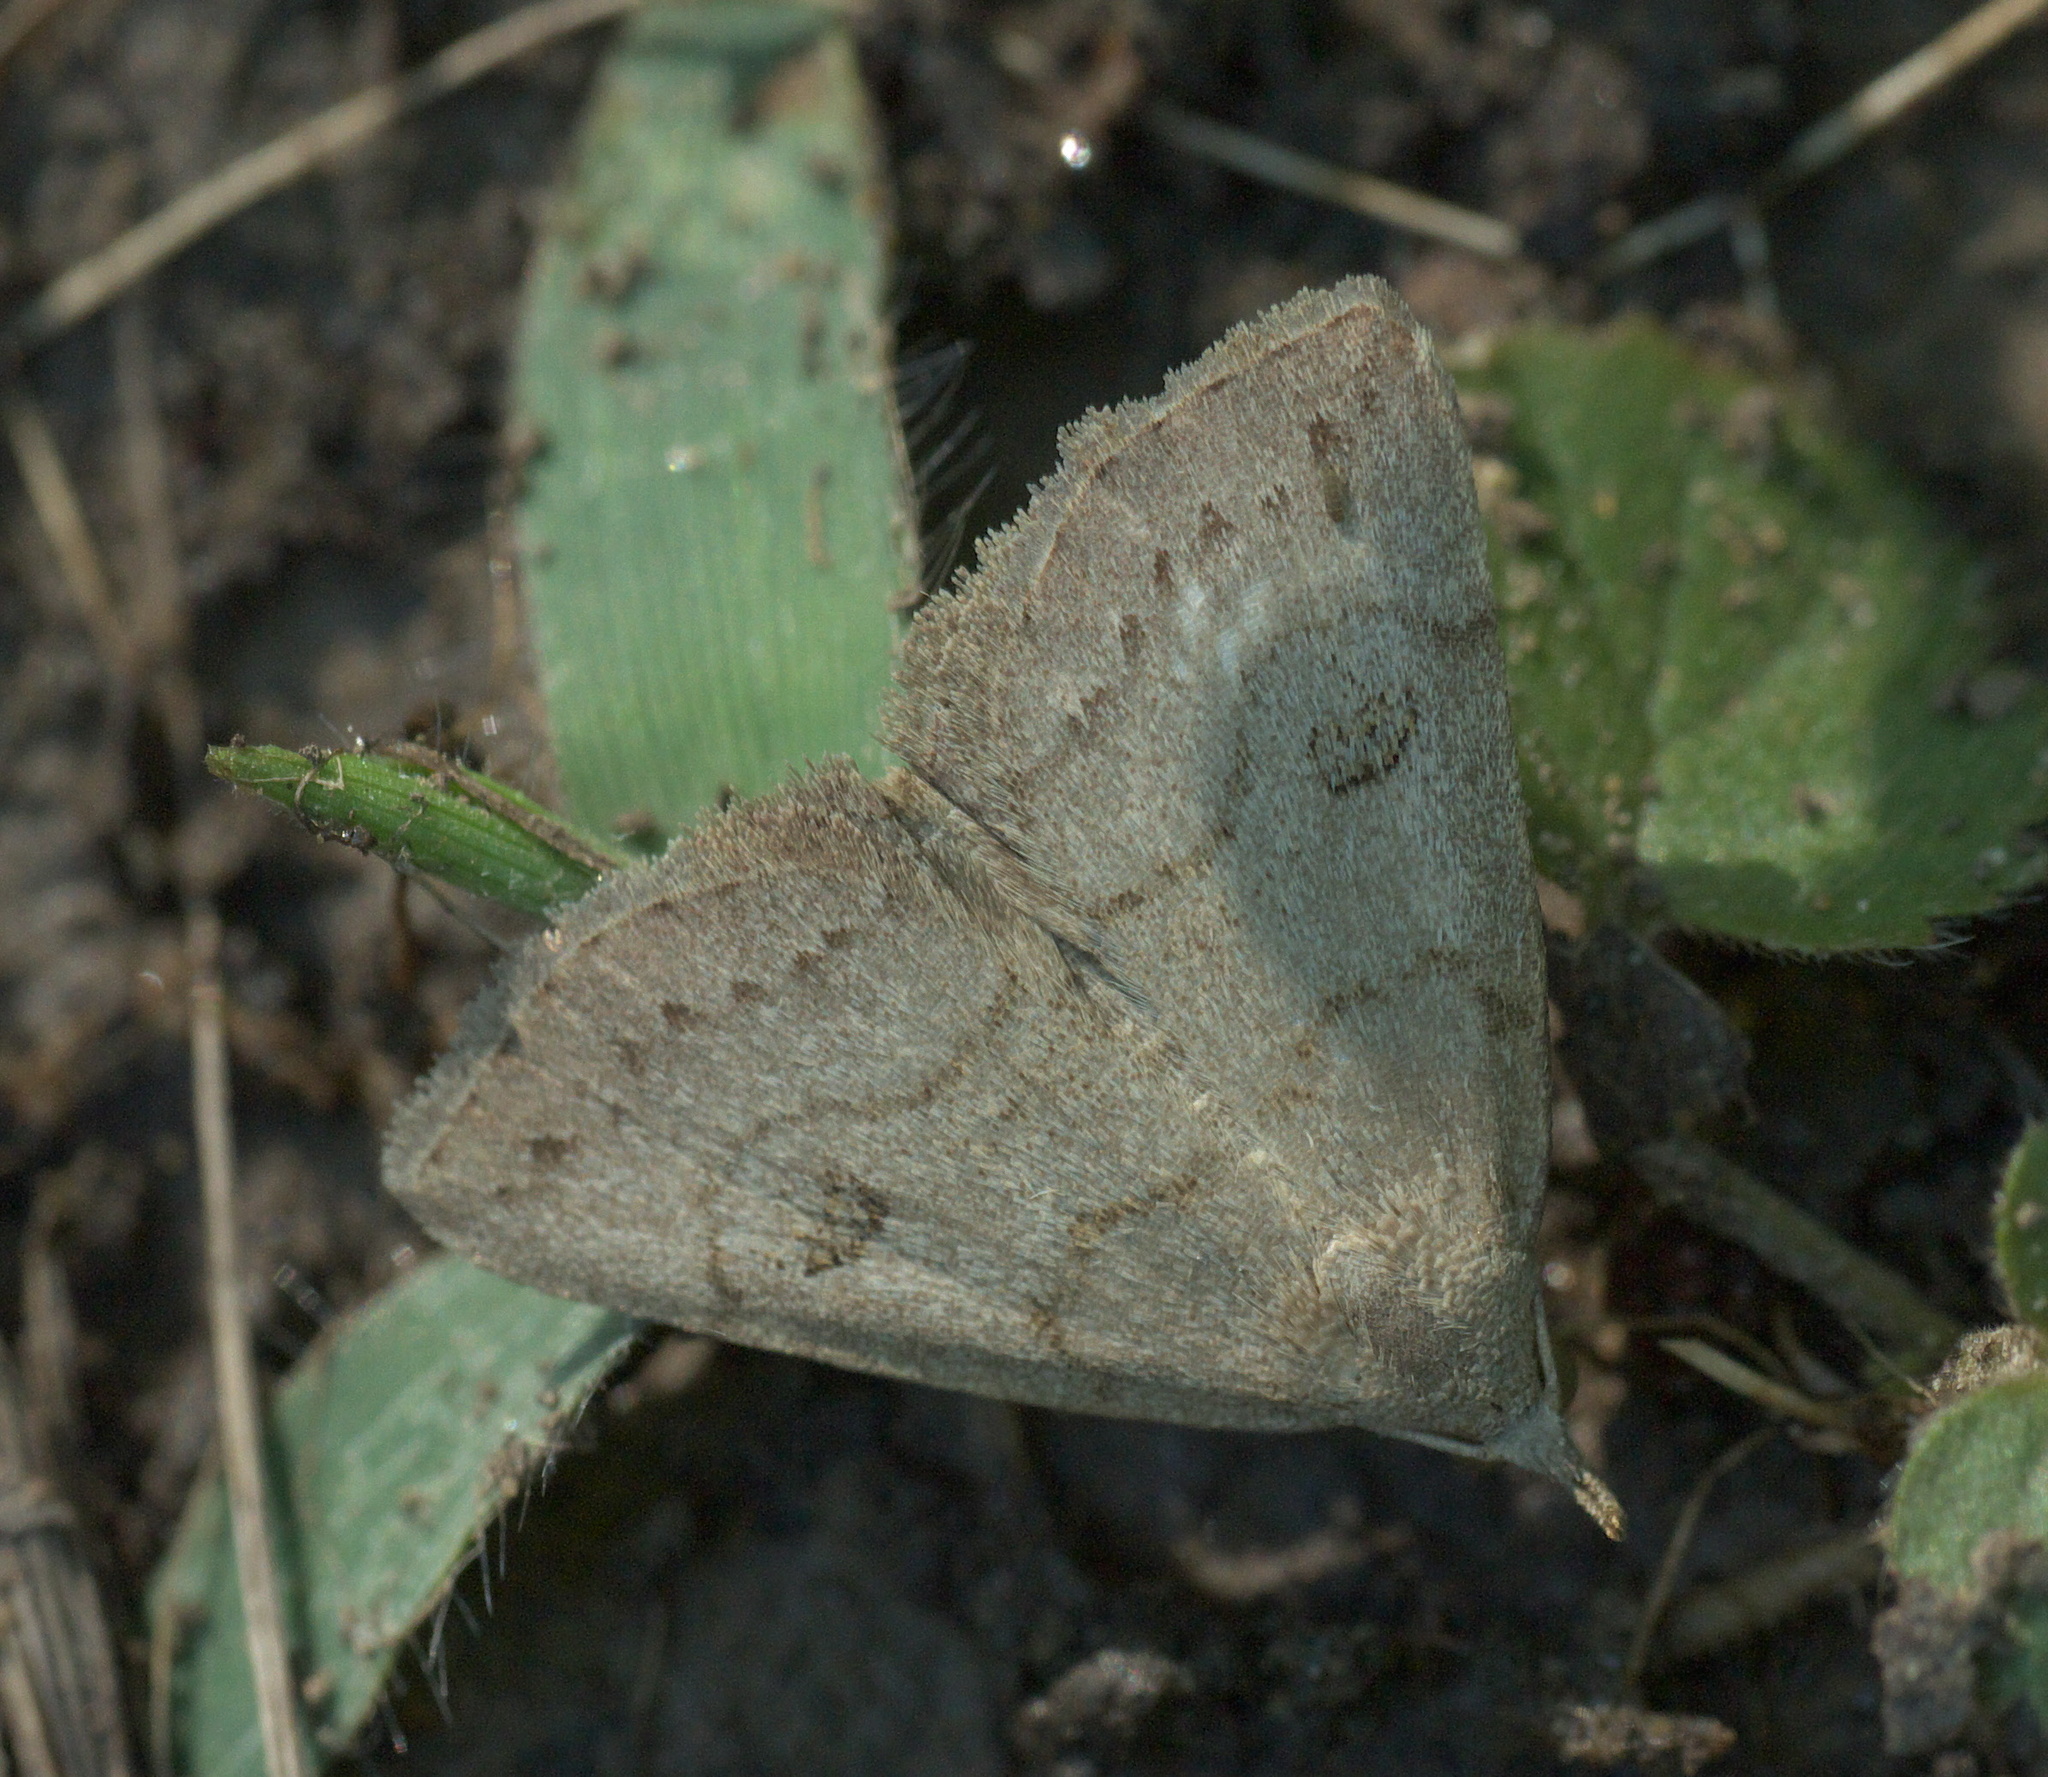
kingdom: Animalia
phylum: Arthropoda
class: Insecta
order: Lepidoptera
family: Erebidae
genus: Macrochilo
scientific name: Macrochilo morbidalis
